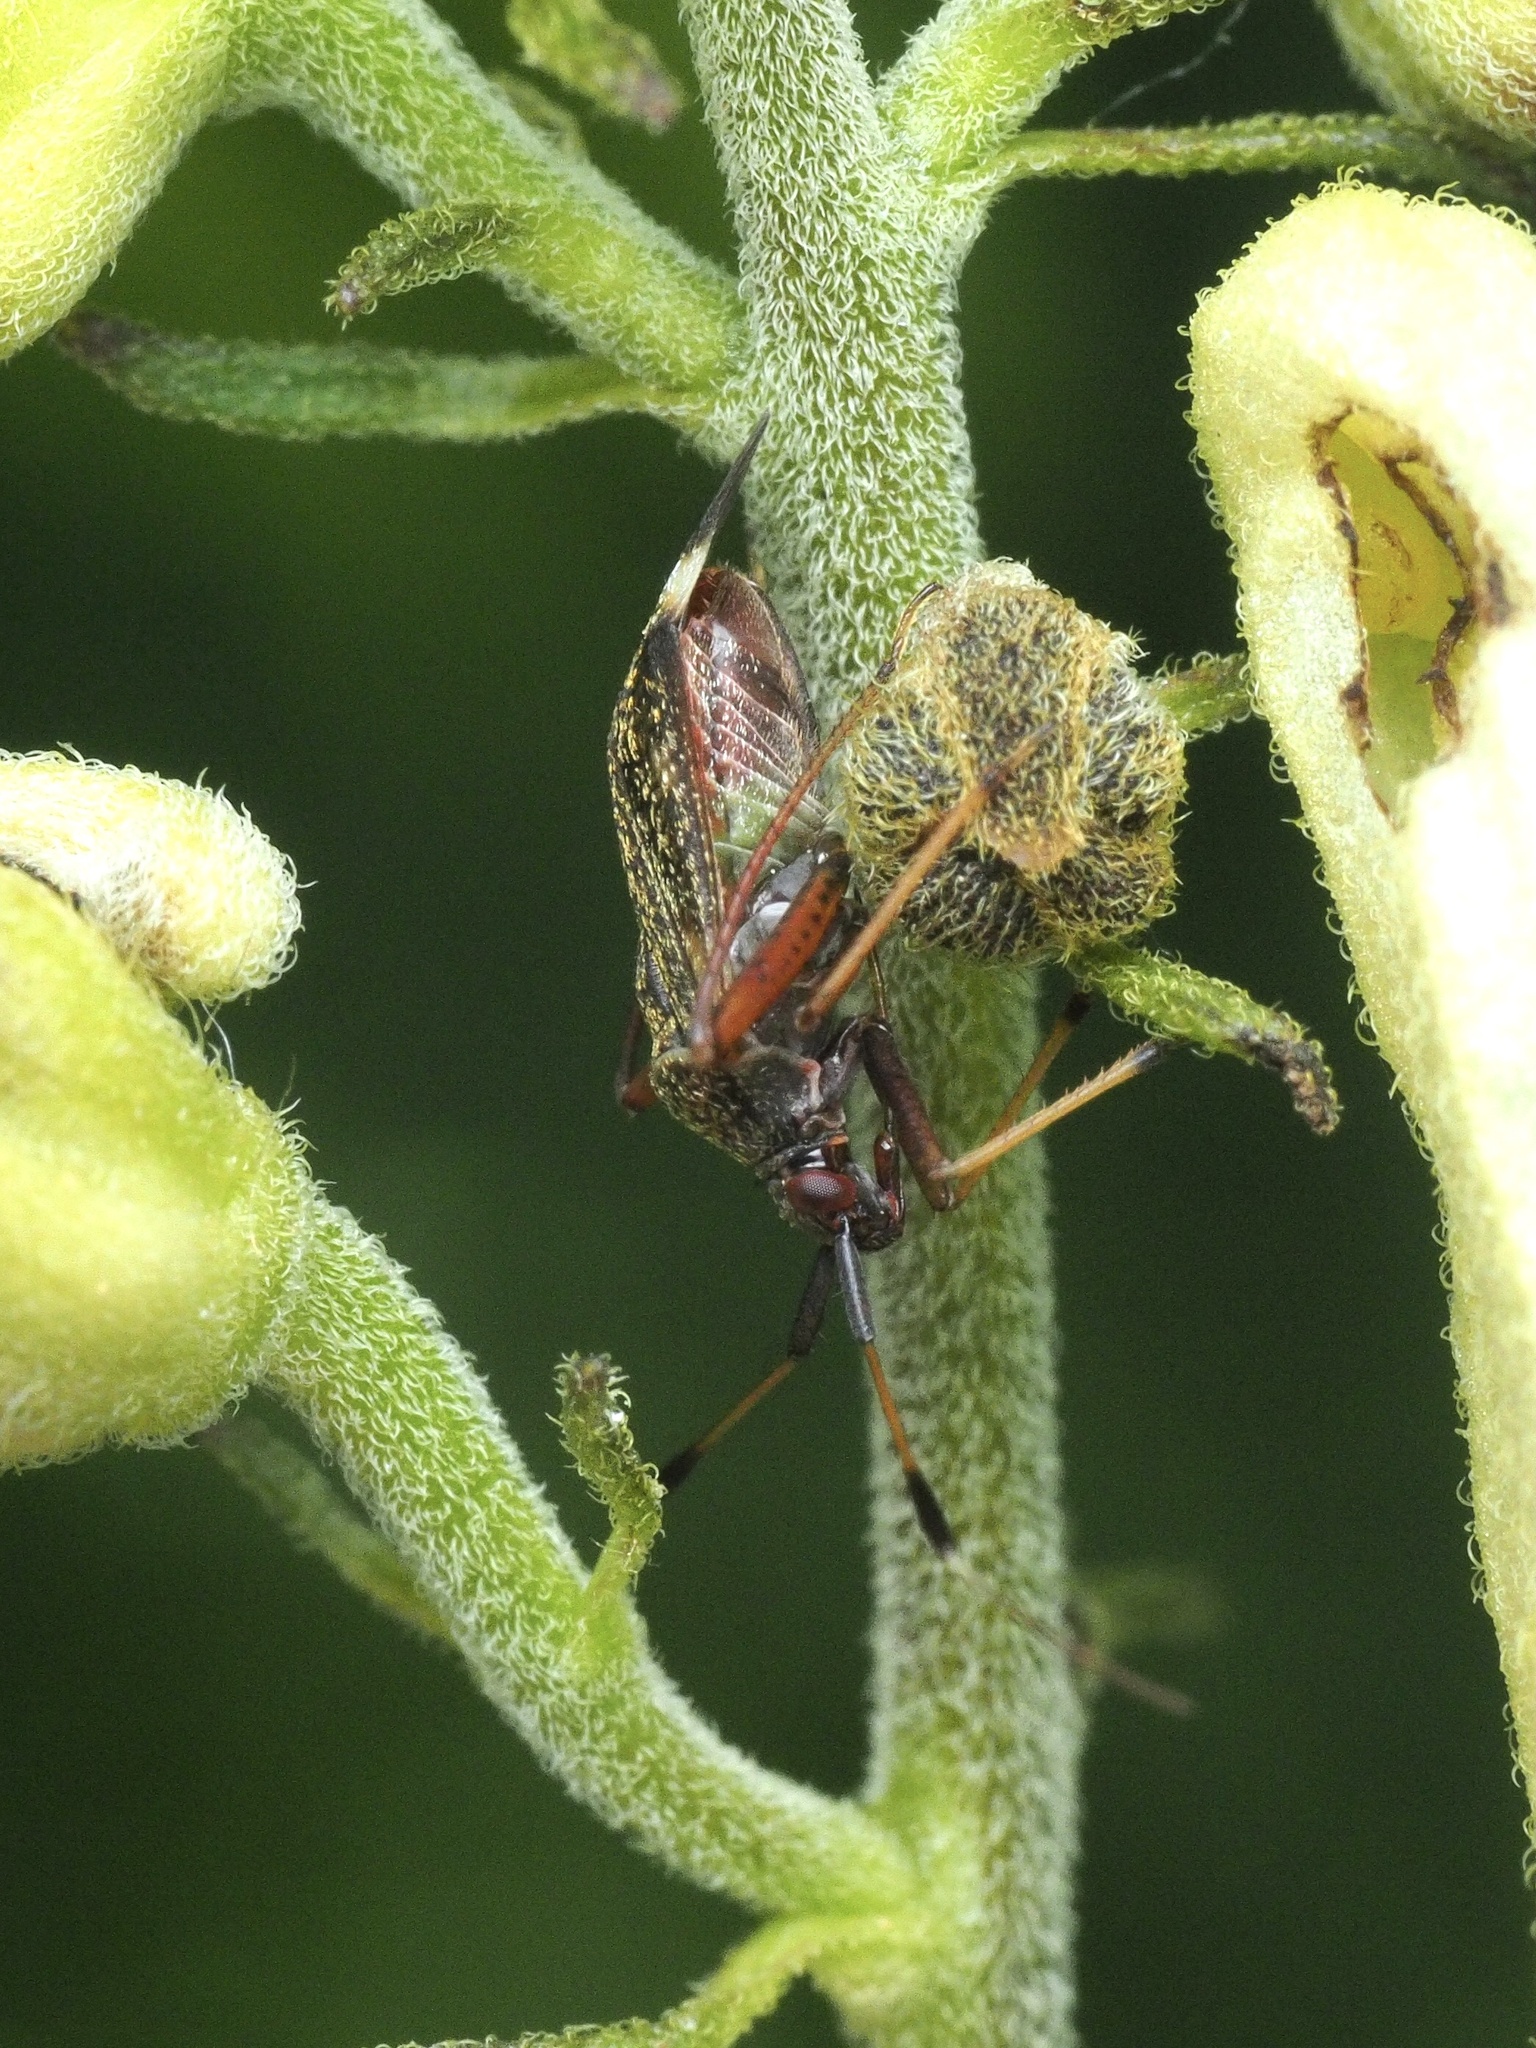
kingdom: Animalia
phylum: Arthropoda
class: Insecta
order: Hemiptera
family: Miridae
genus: Closterotomus
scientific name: Closterotomus biclavatus
